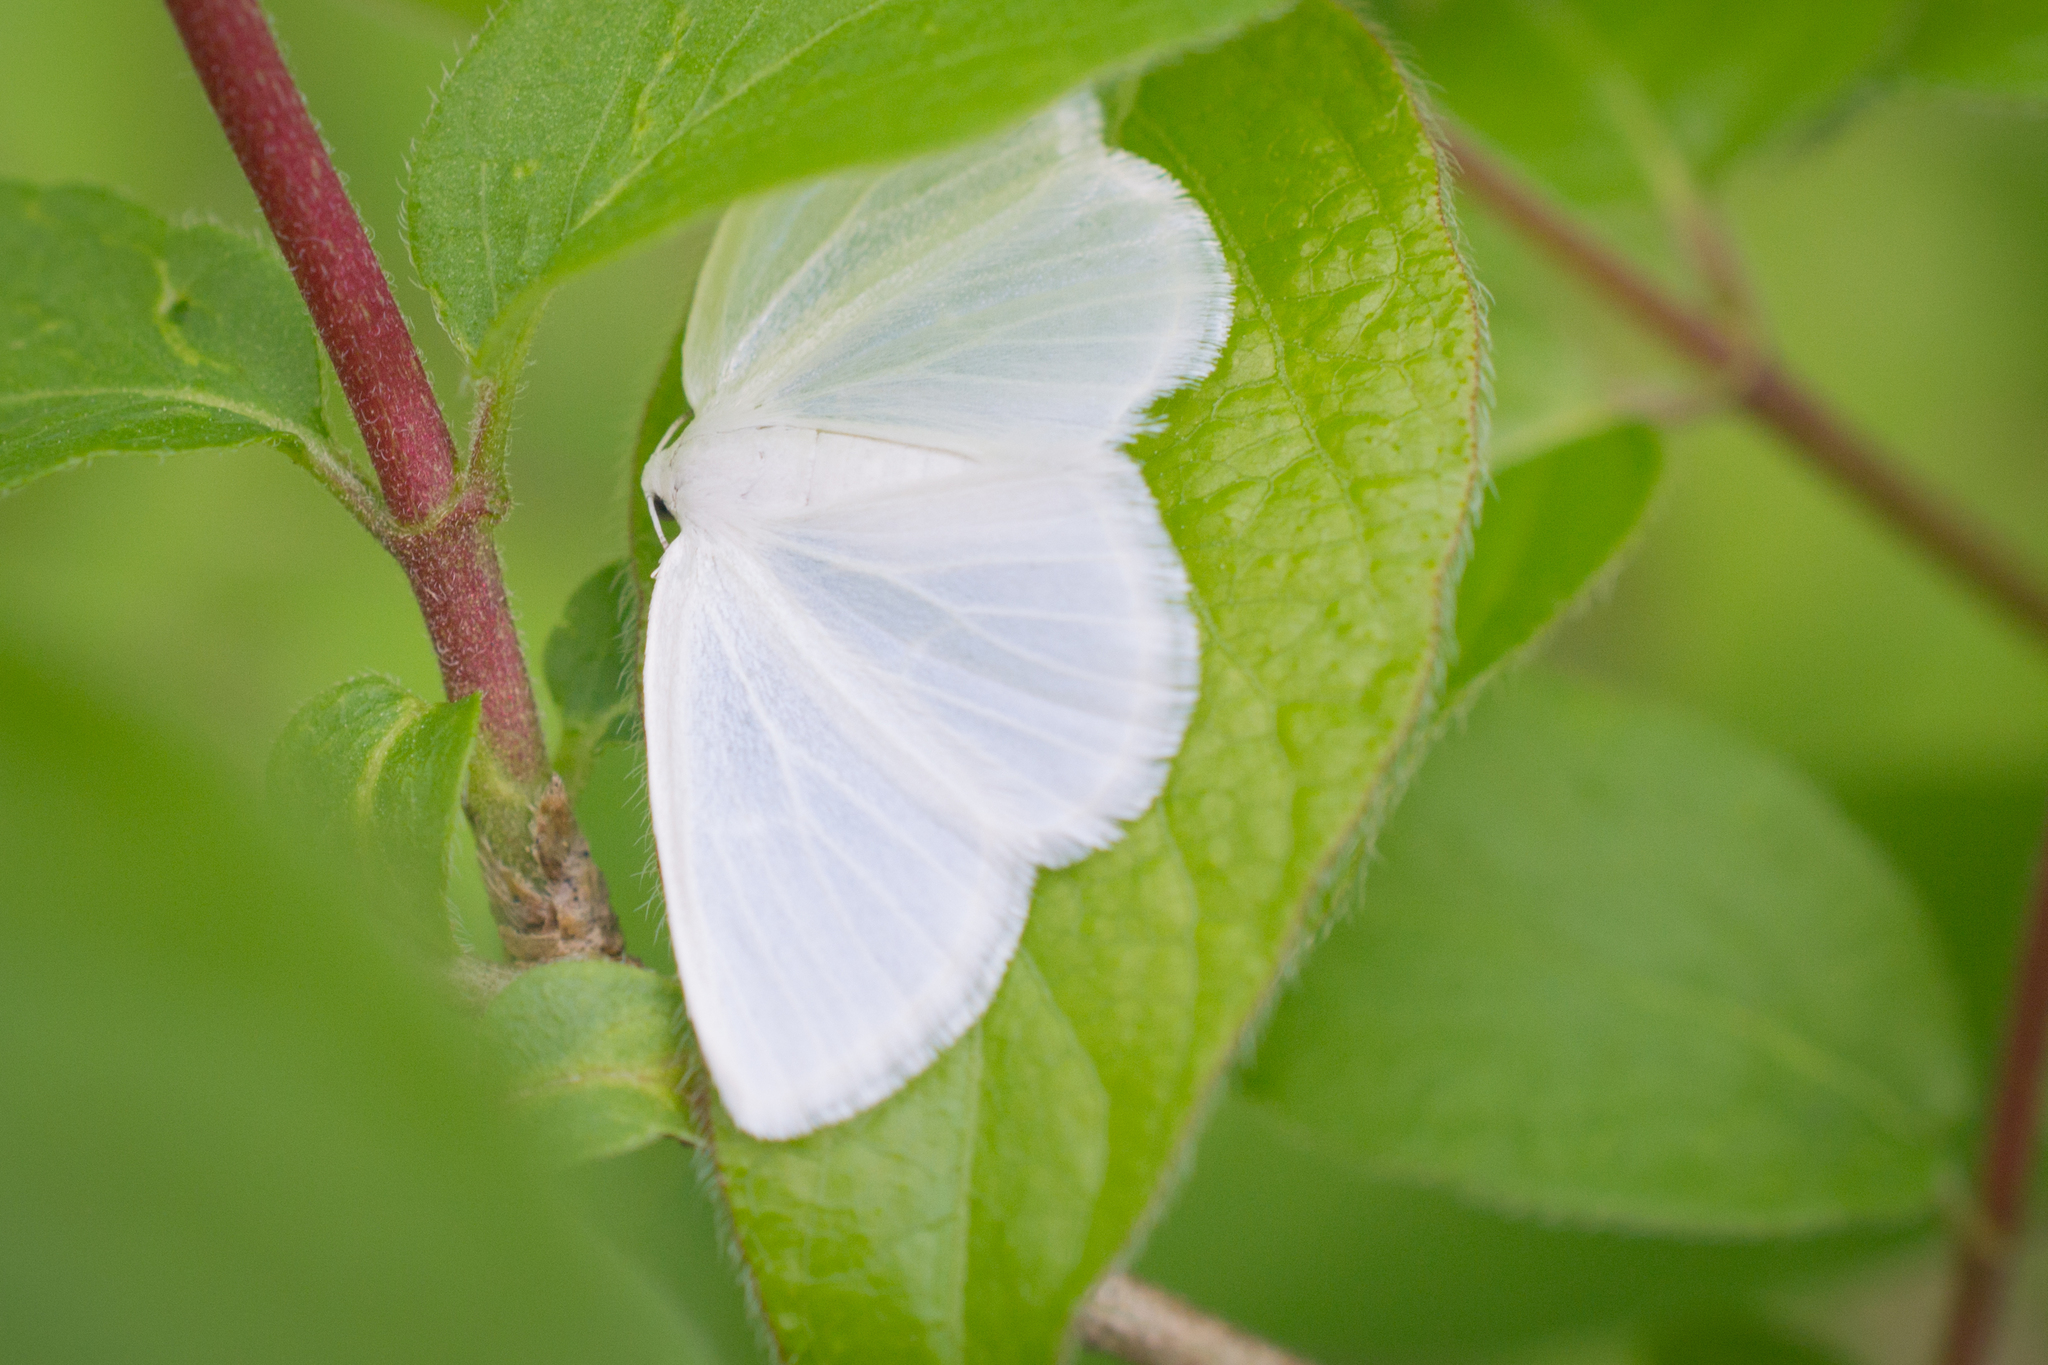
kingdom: Animalia
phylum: Arthropoda
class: Insecta
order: Lepidoptera
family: Geometridae
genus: Lomographa
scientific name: Lomographa vestaliata
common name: White spring moth
